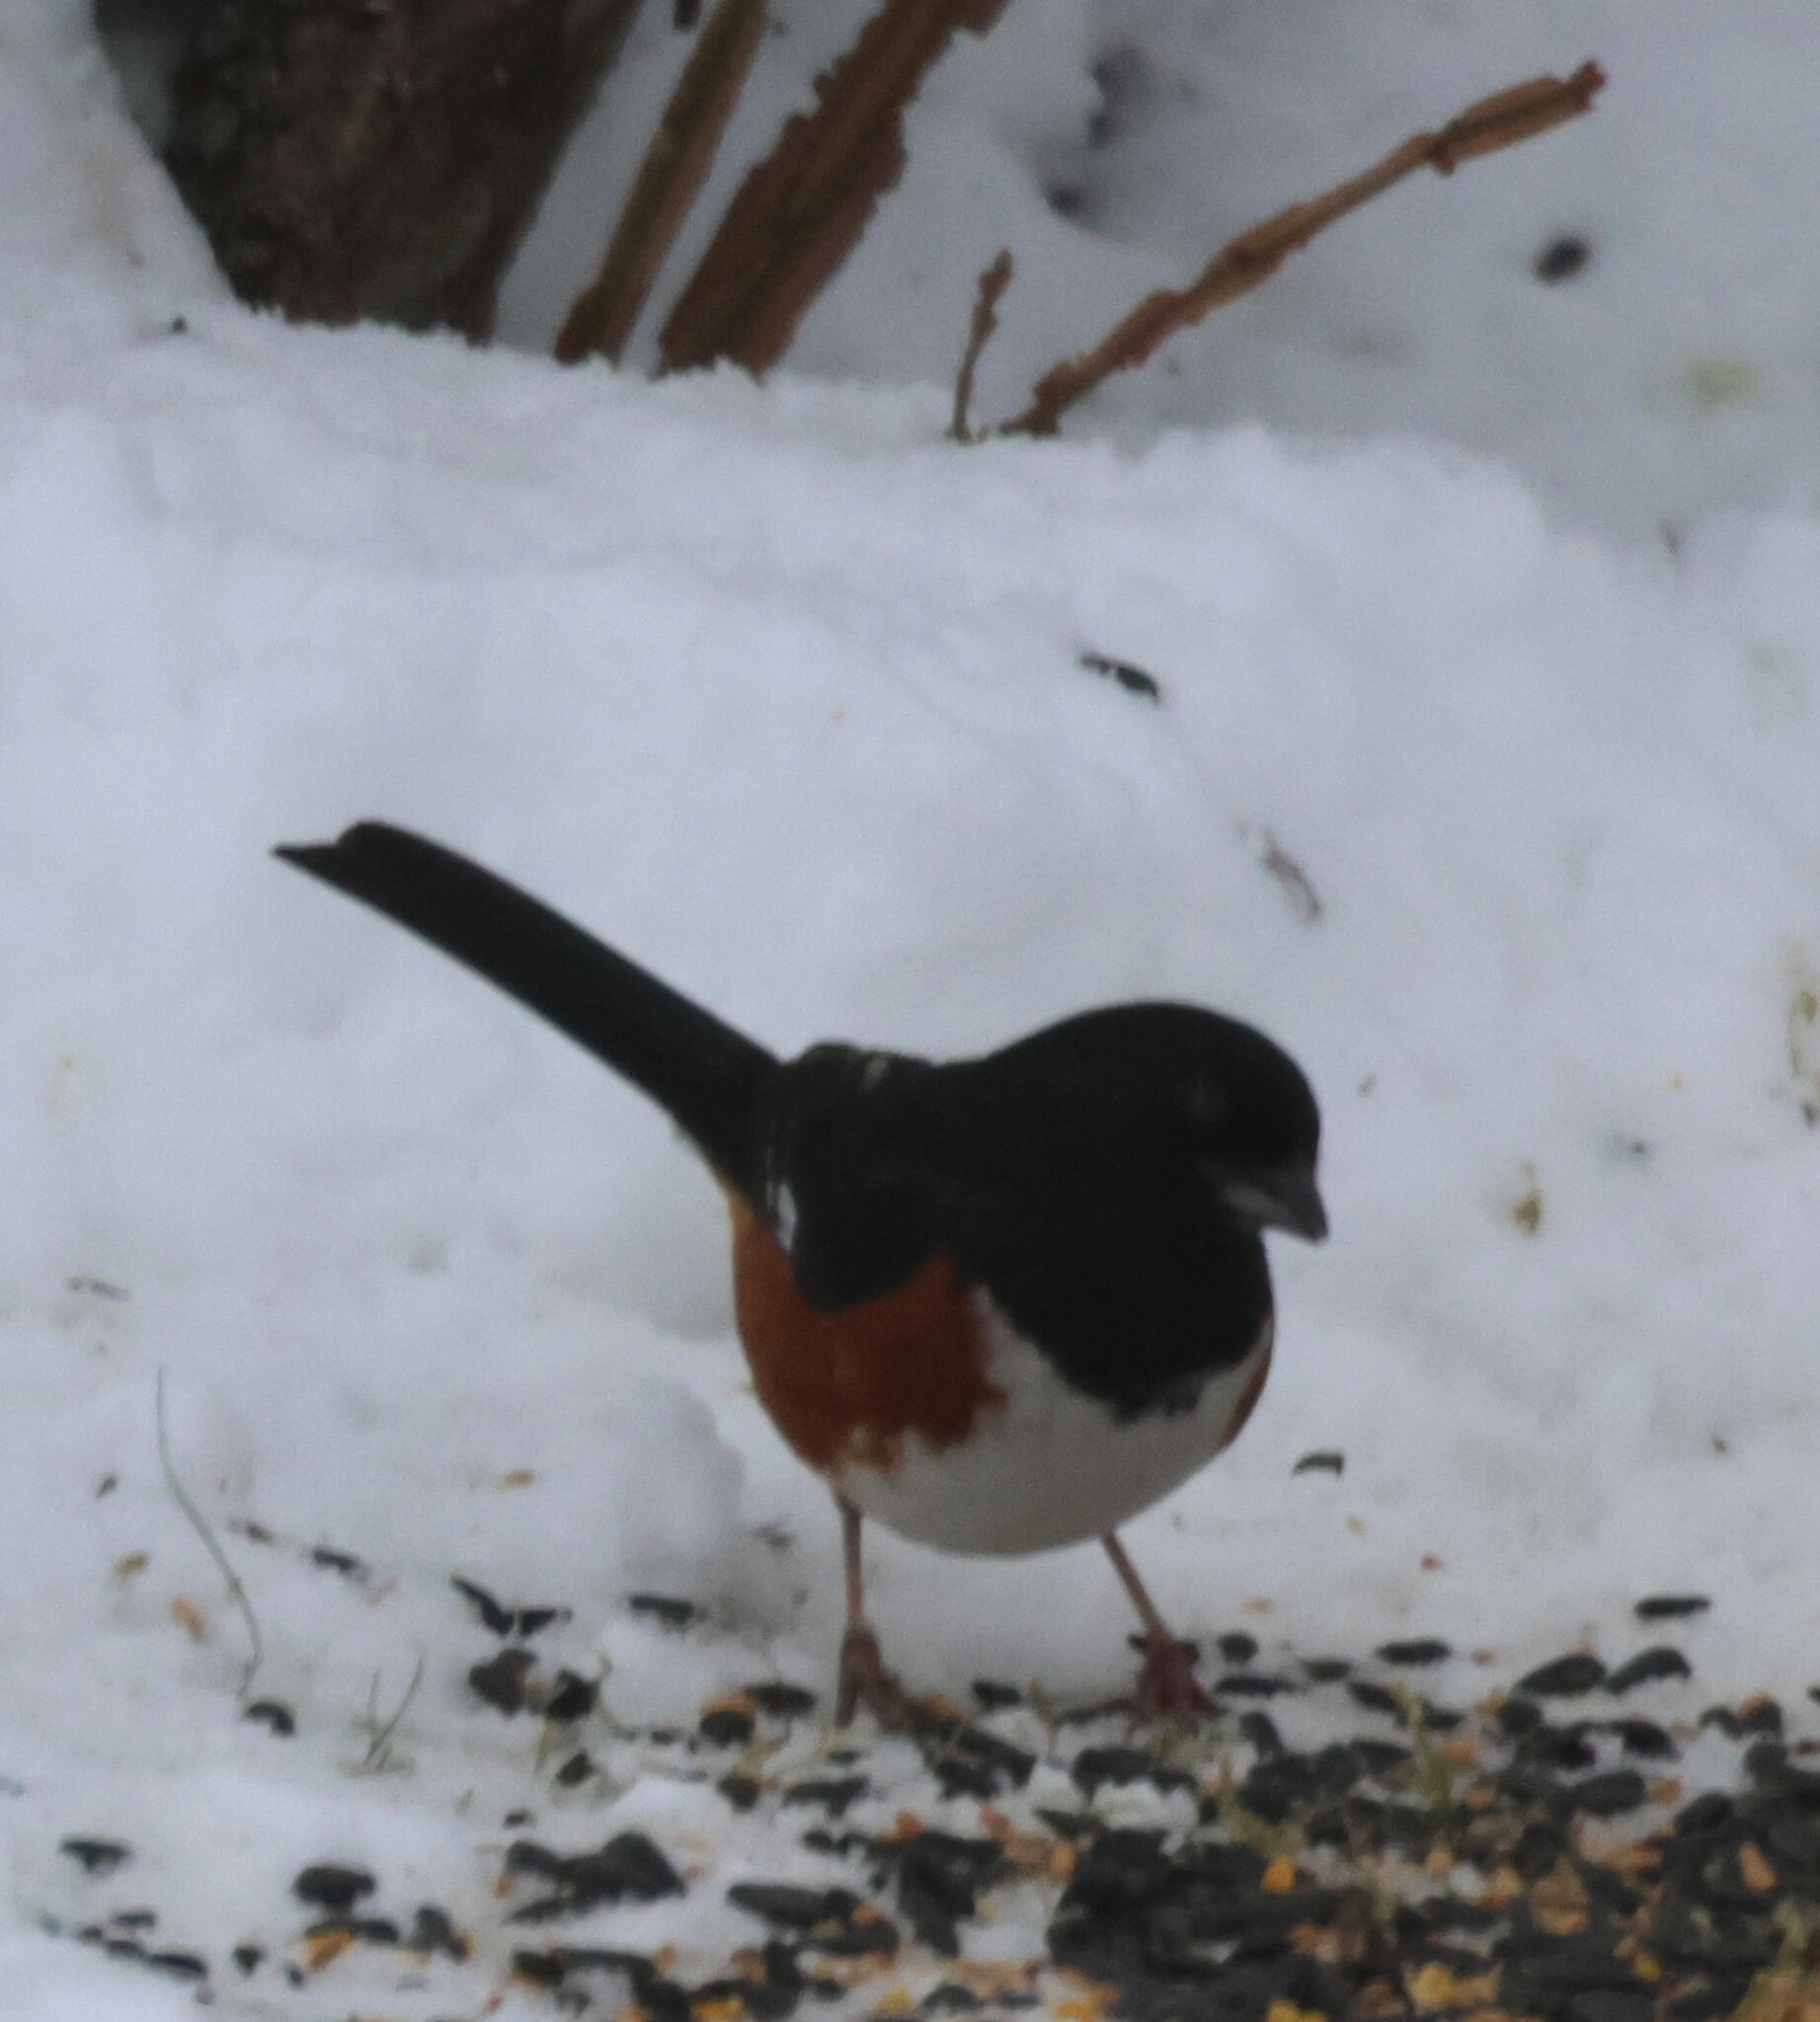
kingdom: Animalia
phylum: Chordata
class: Aves
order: Passeriformes
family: Passerellidae
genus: Pipilo
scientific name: Pipilo erythrophthalmus
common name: Eastern towhee
